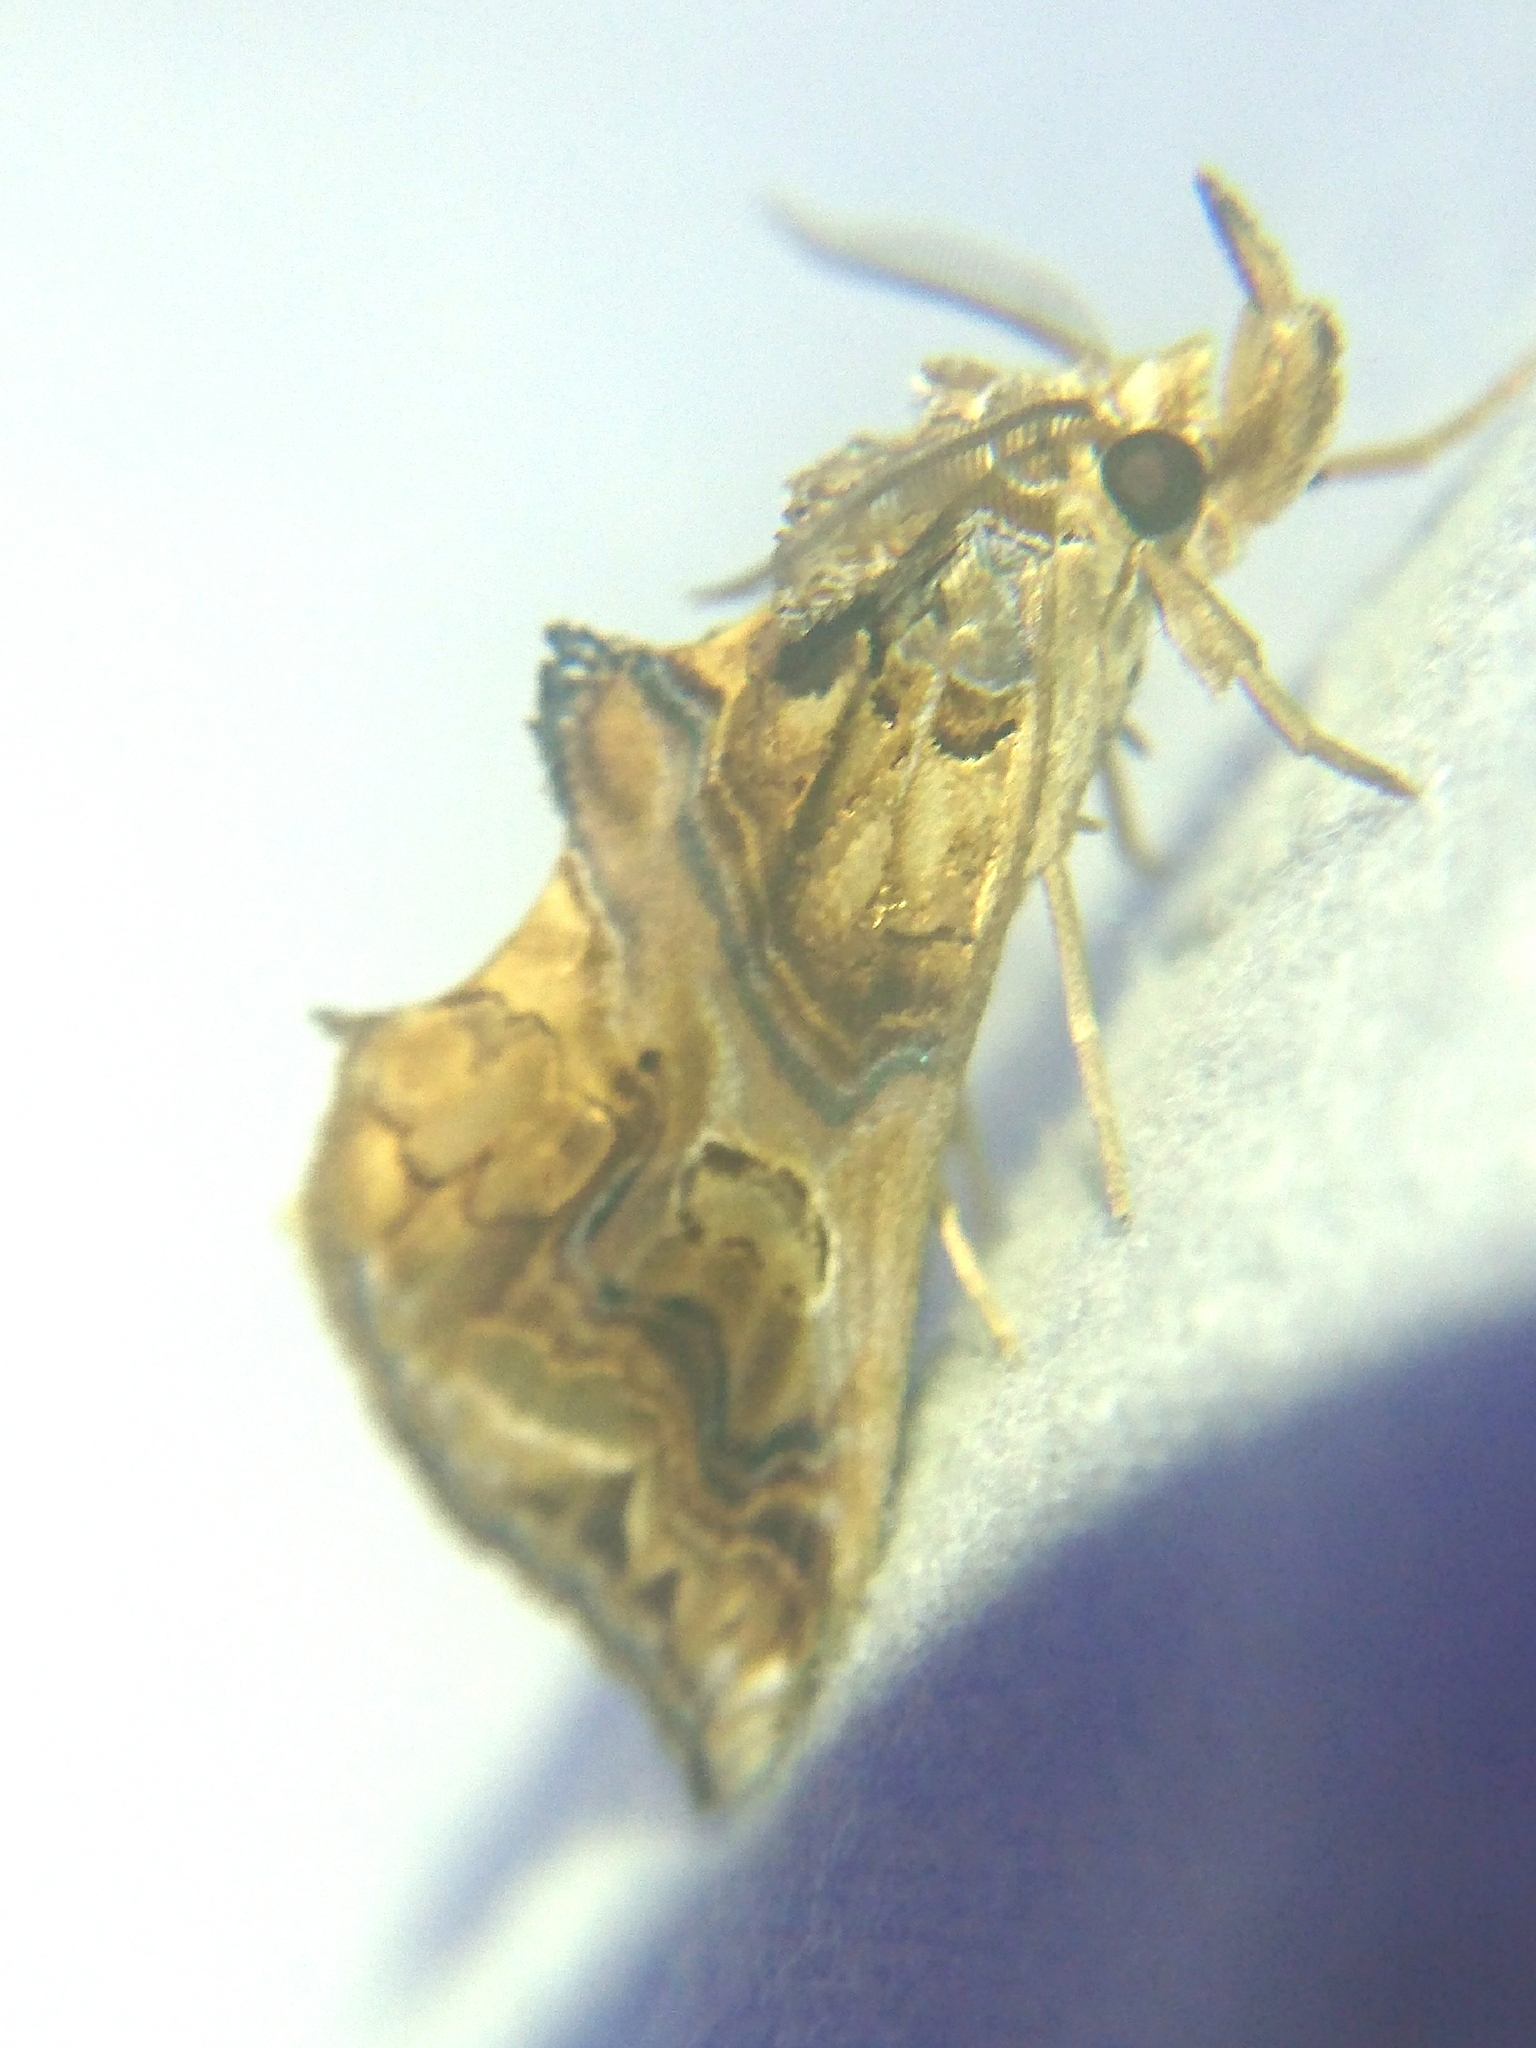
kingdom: Animalia
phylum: Arthropoda
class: Insecta
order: Lepidoptera
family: Erebidae
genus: Plusiodonta
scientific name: Plusiodonta compressipalpis
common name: Moonseed moth
